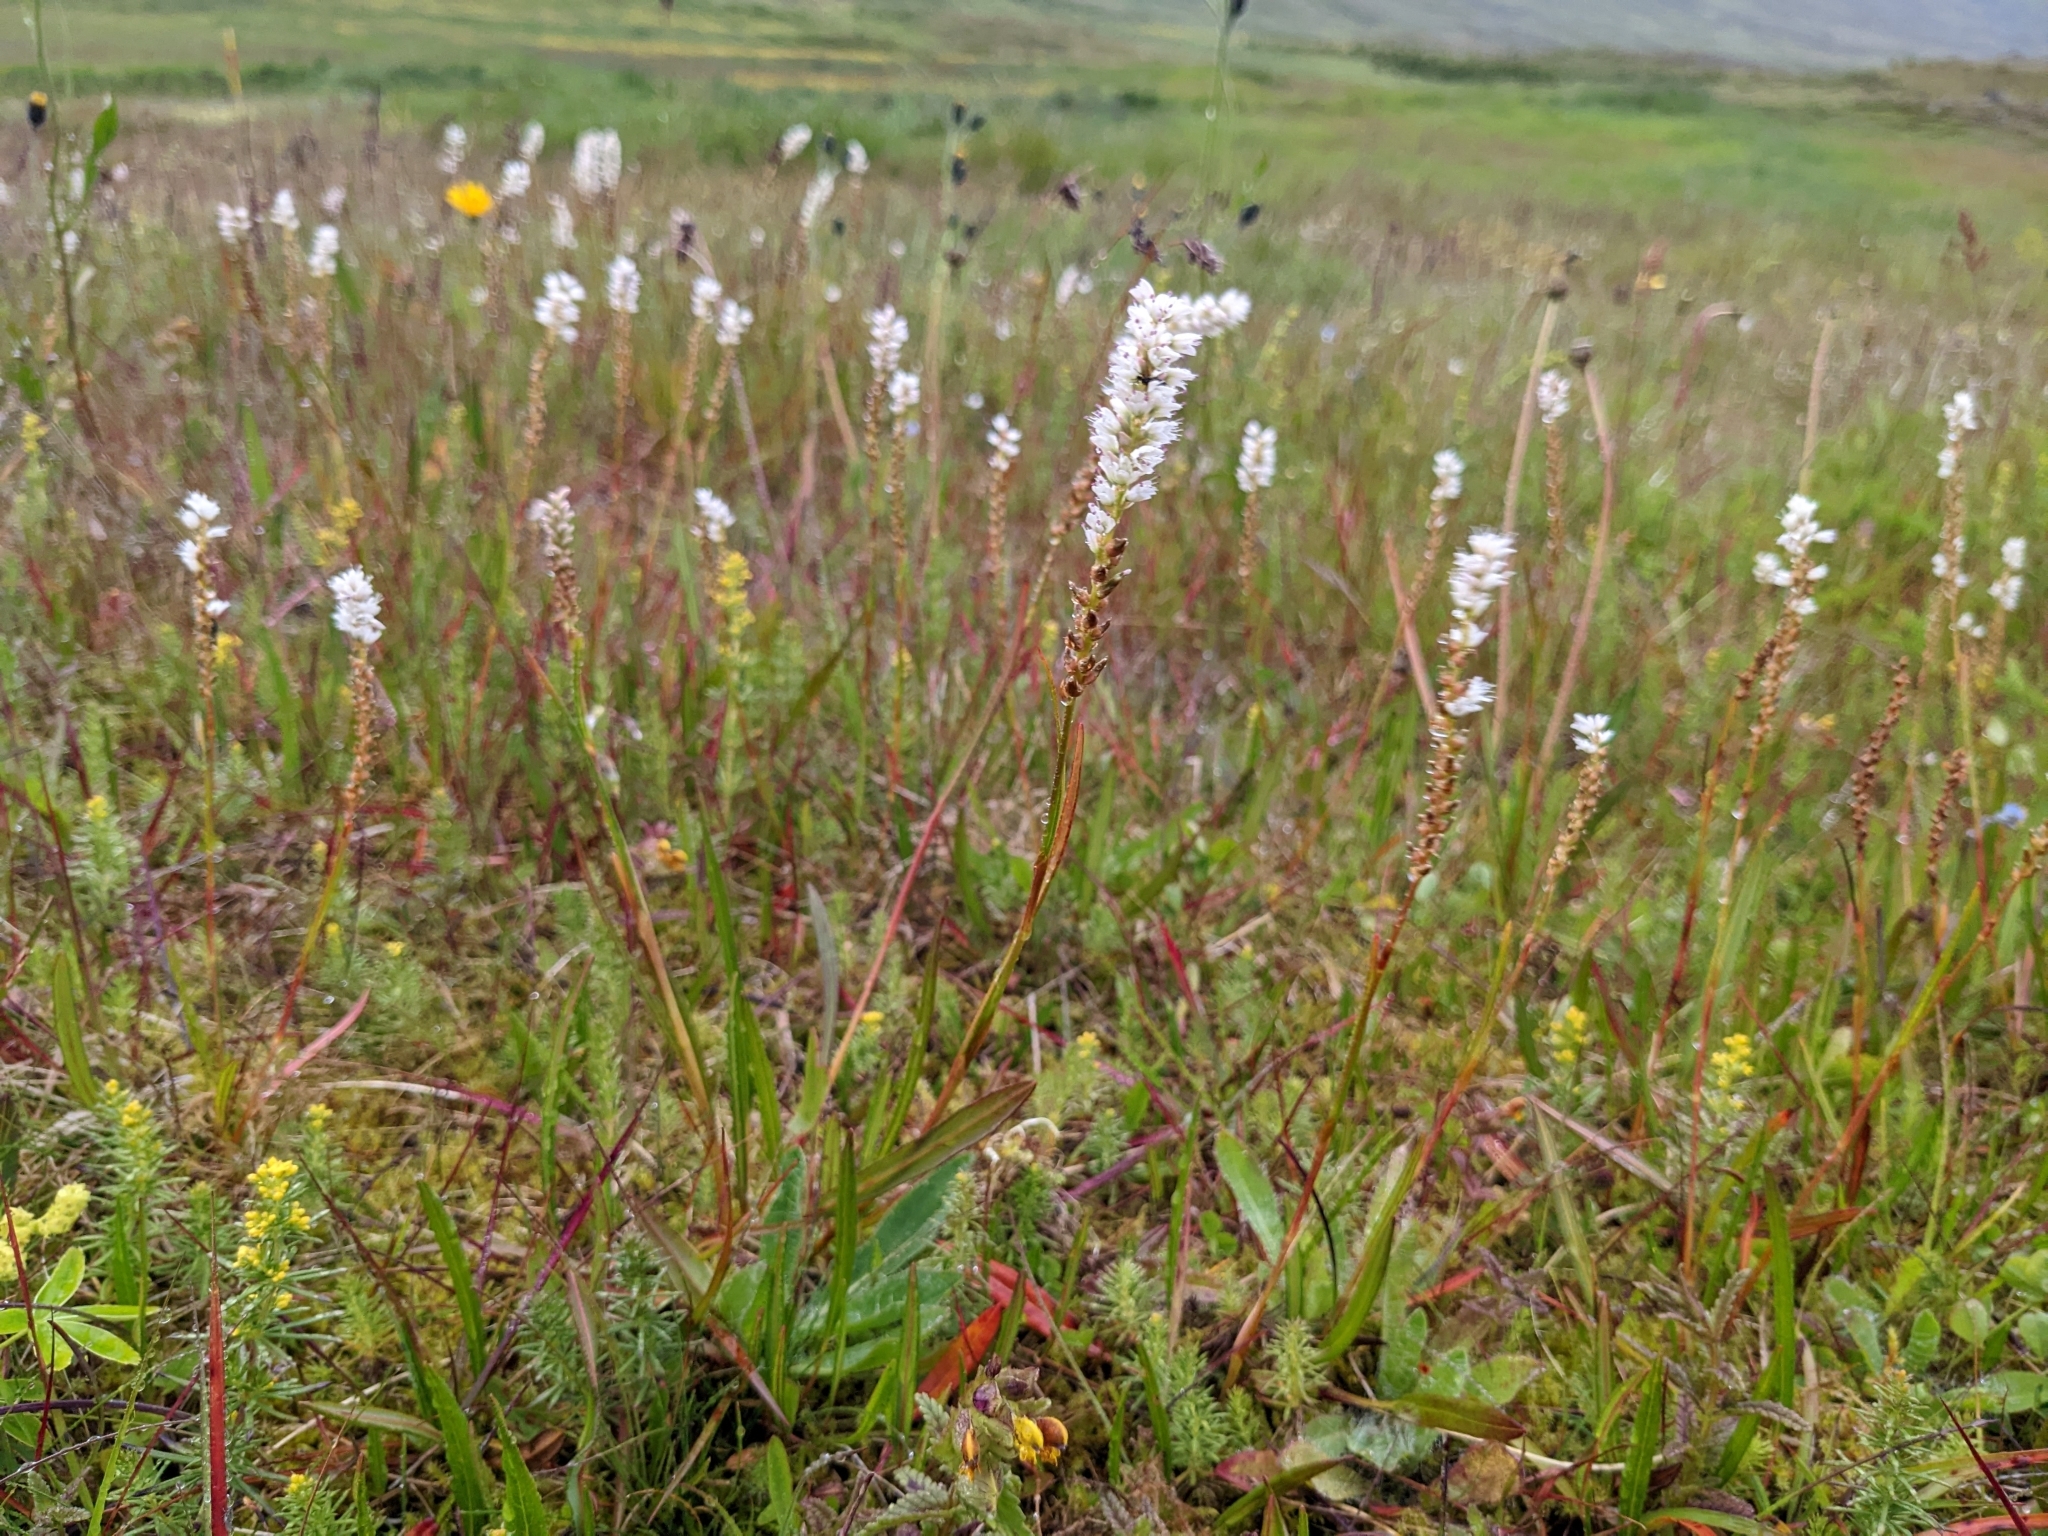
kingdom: Plantae
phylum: Tracheophyta
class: Magnoliopsida
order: Caryophyllales
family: Polygonaceae
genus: Bistorta
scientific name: Bistorta vivipara
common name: Alpine bistort
